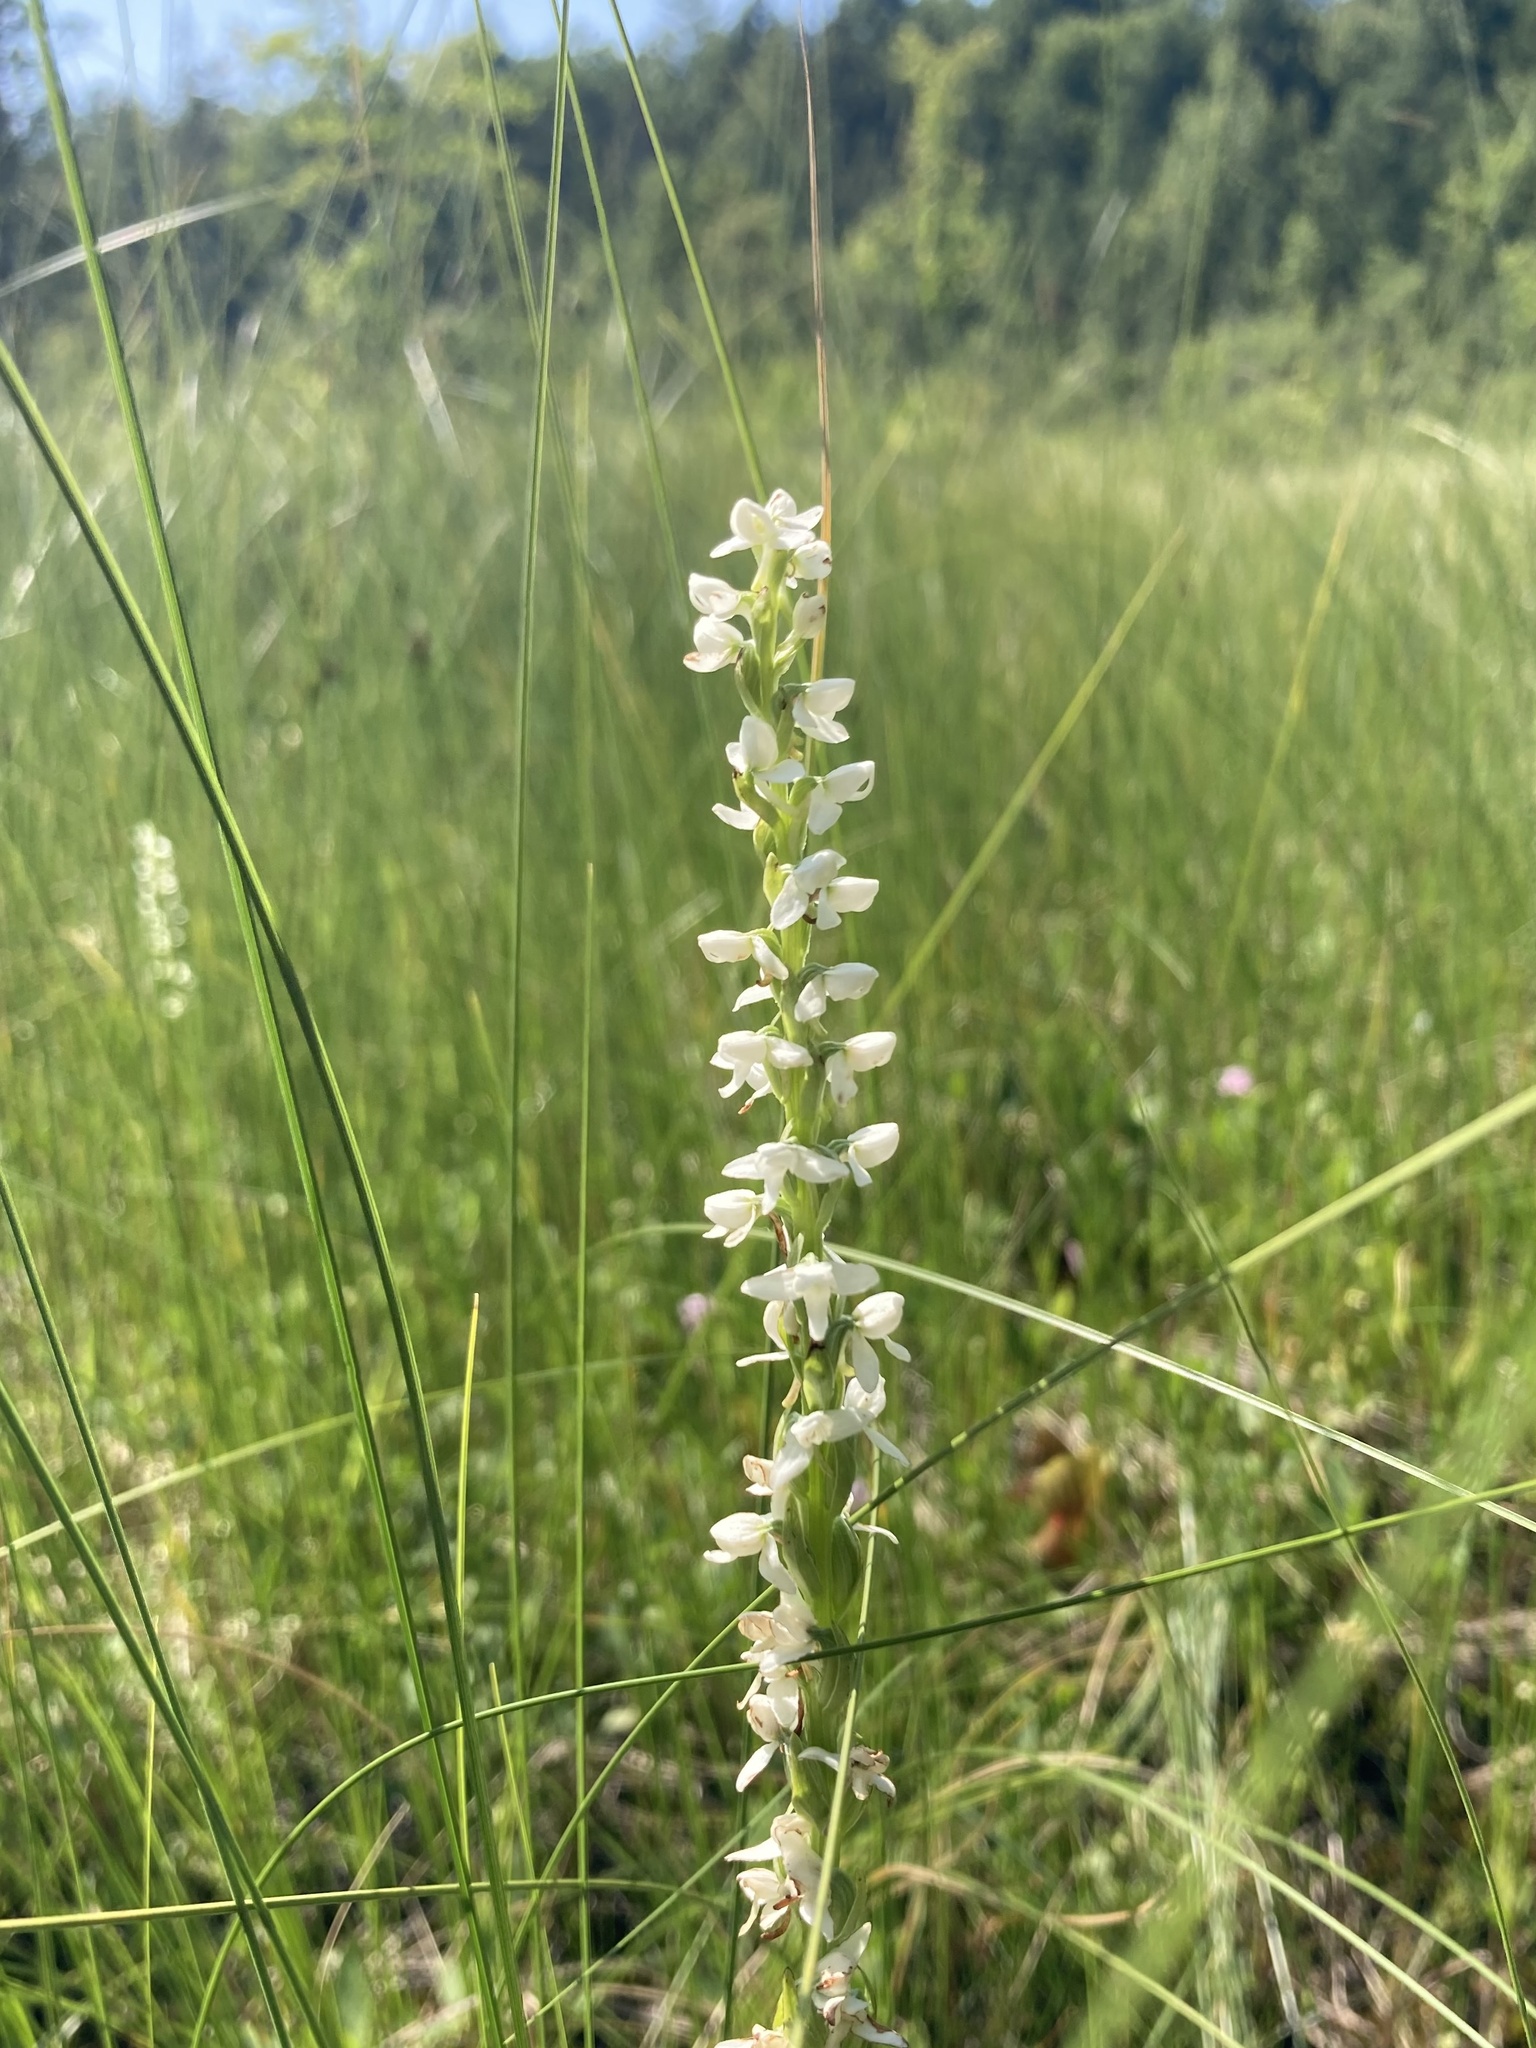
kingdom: Plantae
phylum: Tracheophyta
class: Liliopsida
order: Asparagales
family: Orchidaceae
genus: Platanthera
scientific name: Platanthera dilatata
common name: Bog candles
